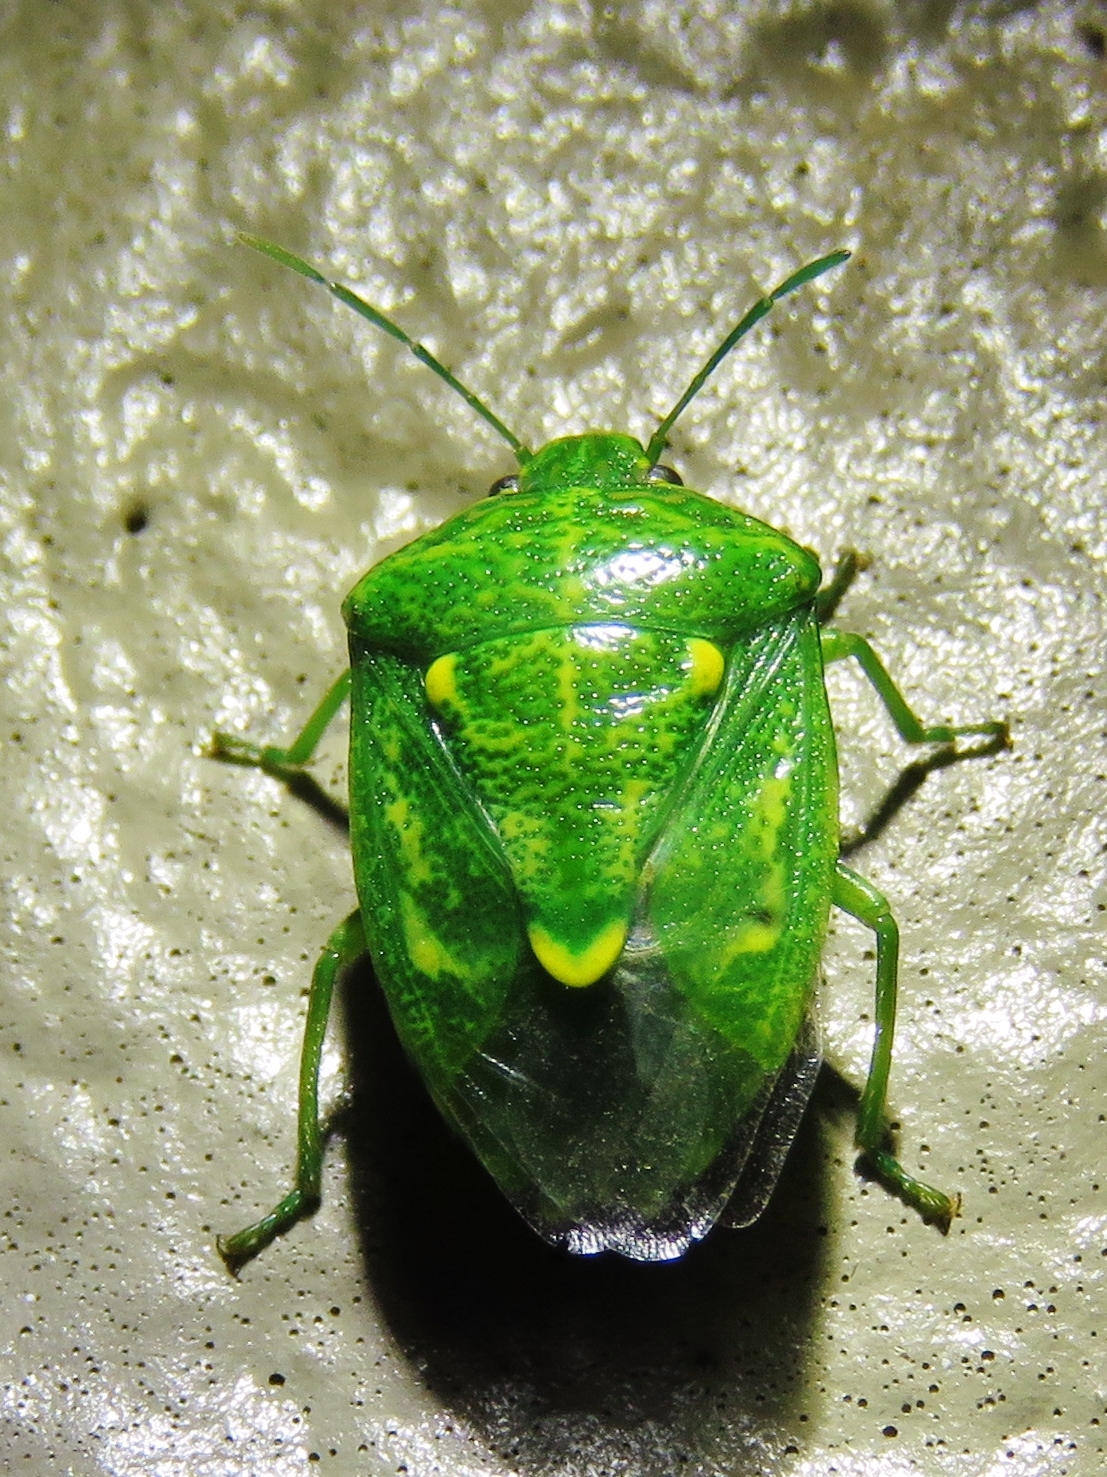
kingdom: Animalia
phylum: Arthropoda
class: Insecta
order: Hemiptera
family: Pentatomidae
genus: Banasa
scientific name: Banasa euchlora
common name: Cedar berry bug
